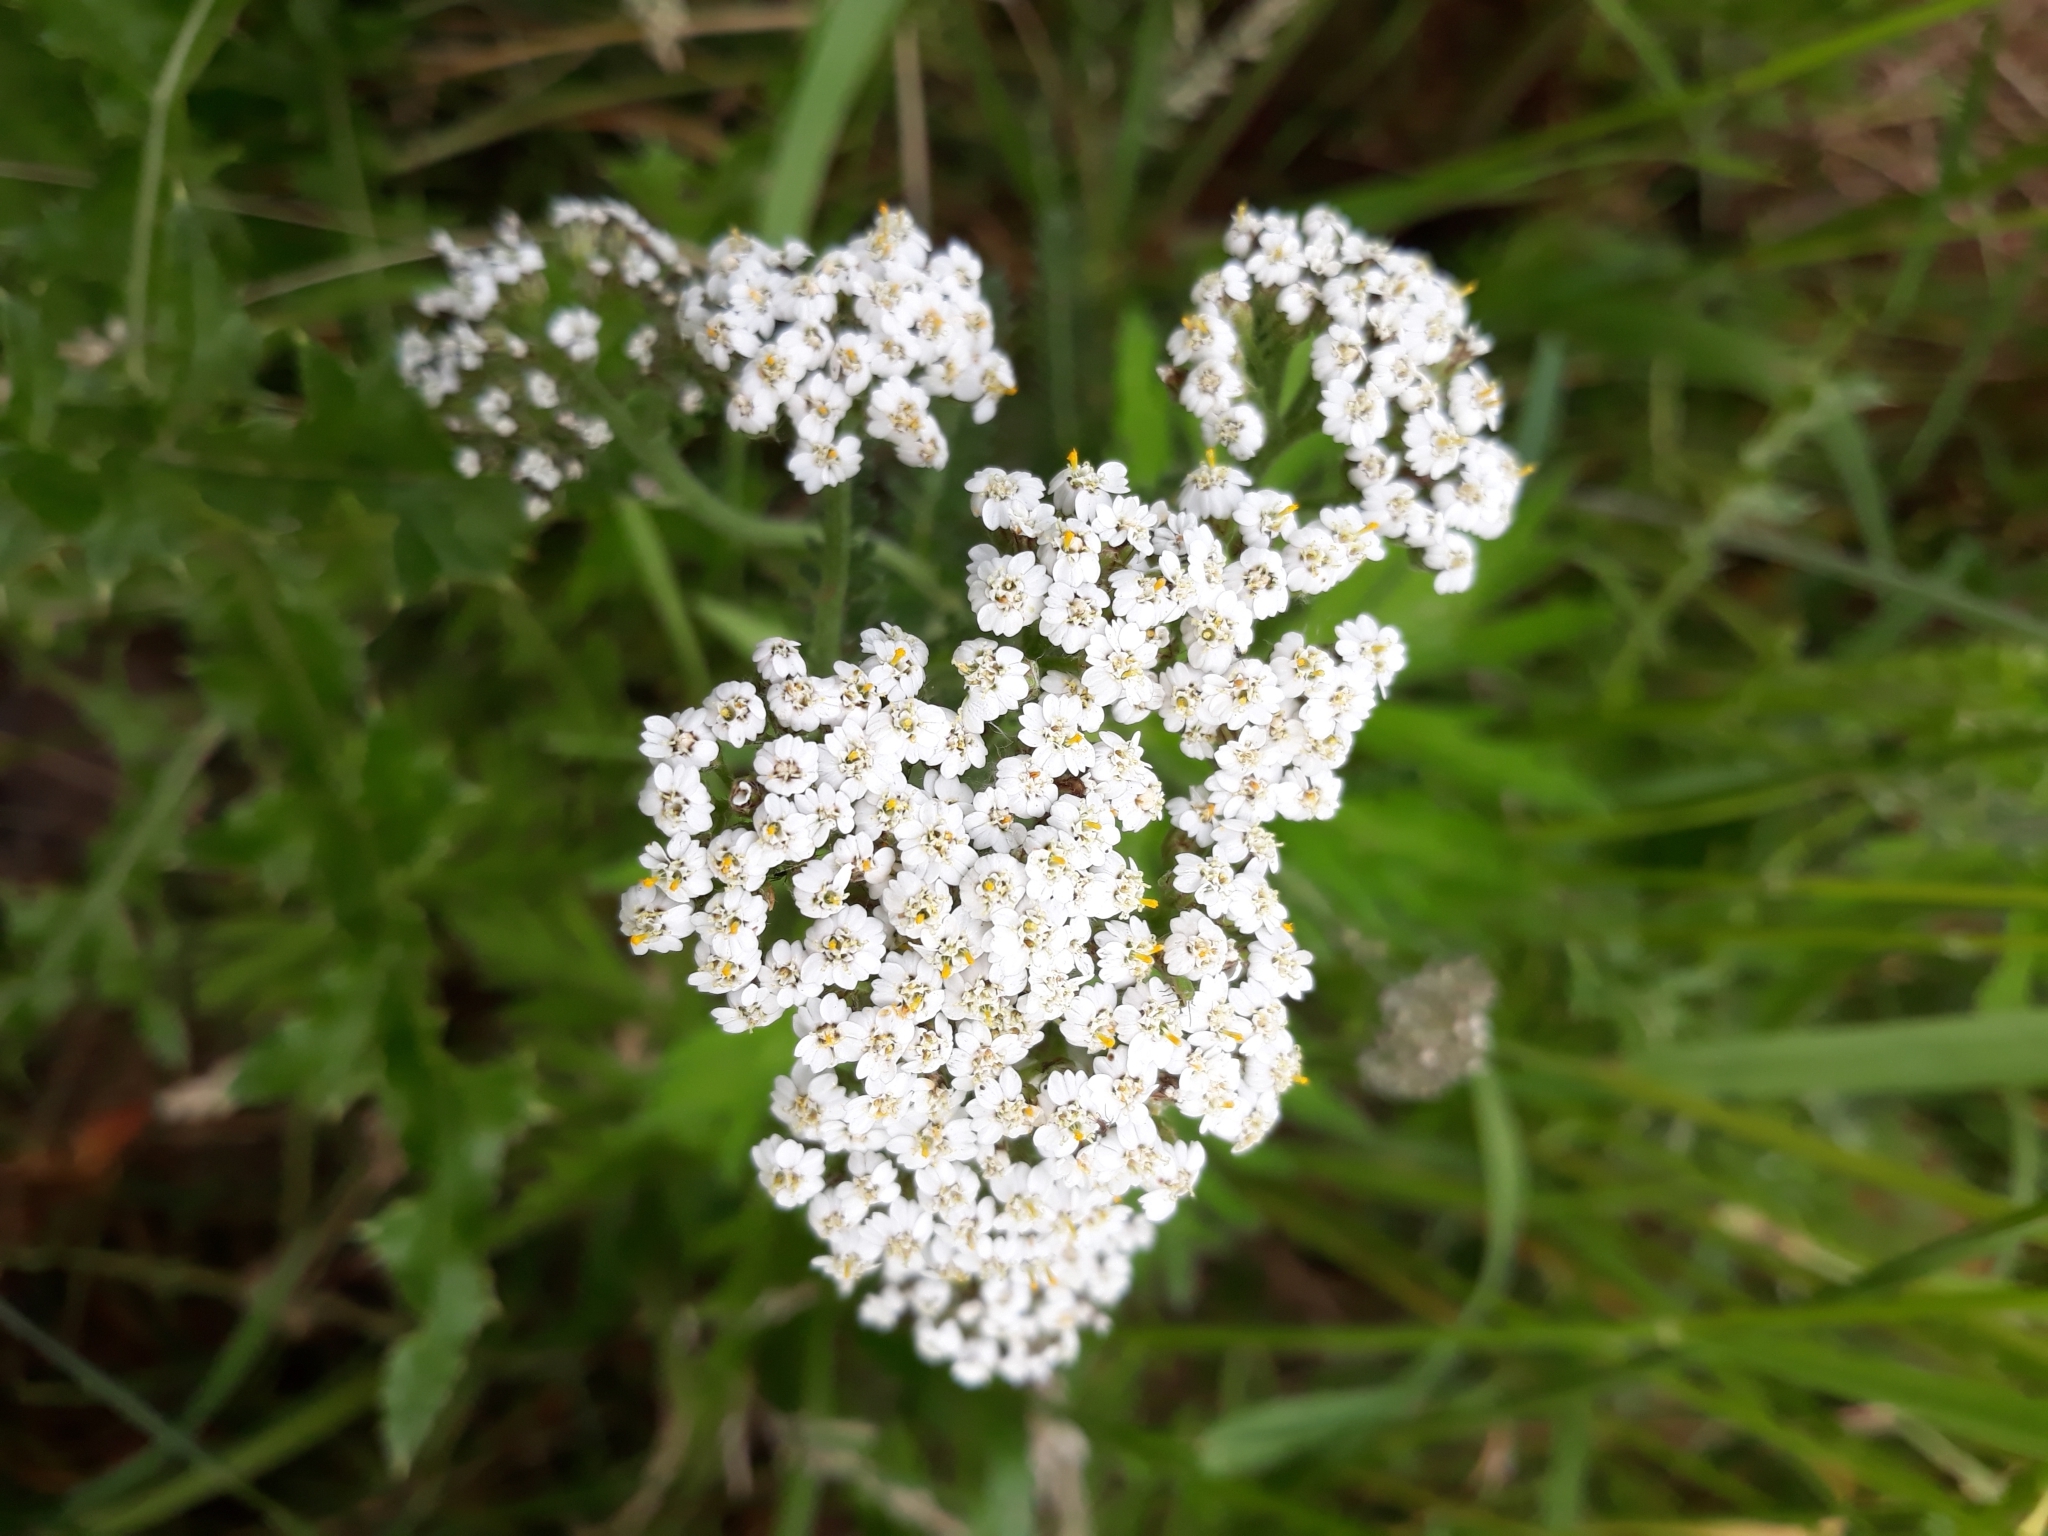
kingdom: Plantae
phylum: Tracheophyta
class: Magnoliopsida
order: Asterales
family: Asteraceae
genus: Achillea
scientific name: Achillea millefolium
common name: Yarrow
